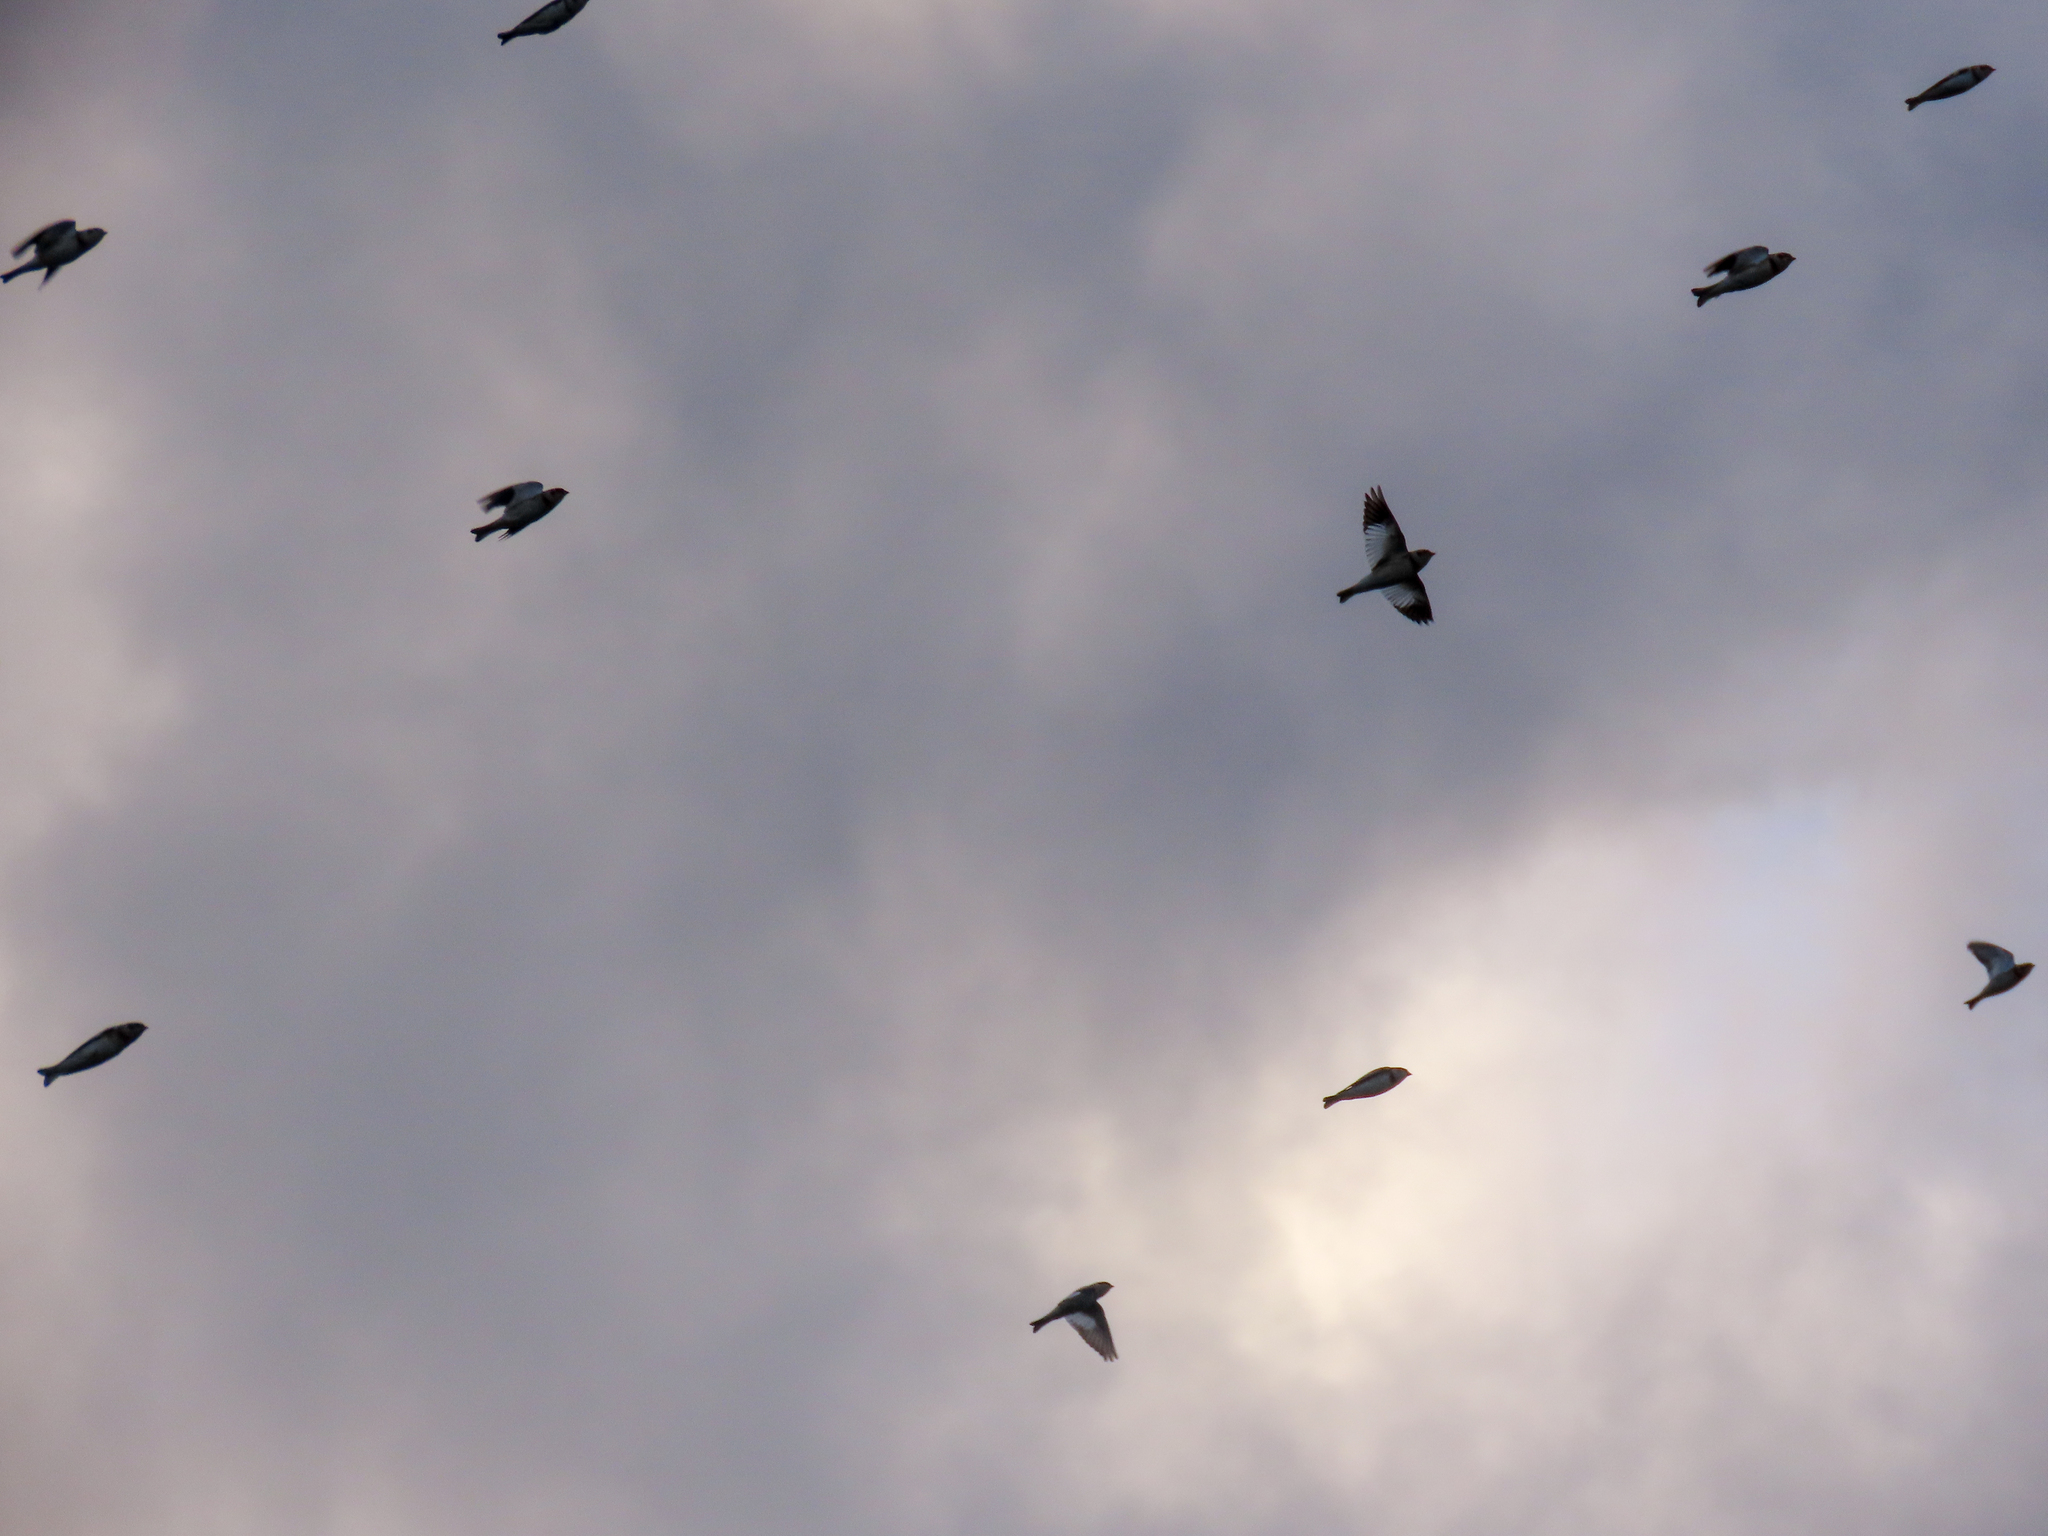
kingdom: Animalia
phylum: Chordata
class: Aves
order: Passeriformes
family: Calcariidae
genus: Plectrophenax
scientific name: Plectrophenax nivalis
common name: Snow bunting
